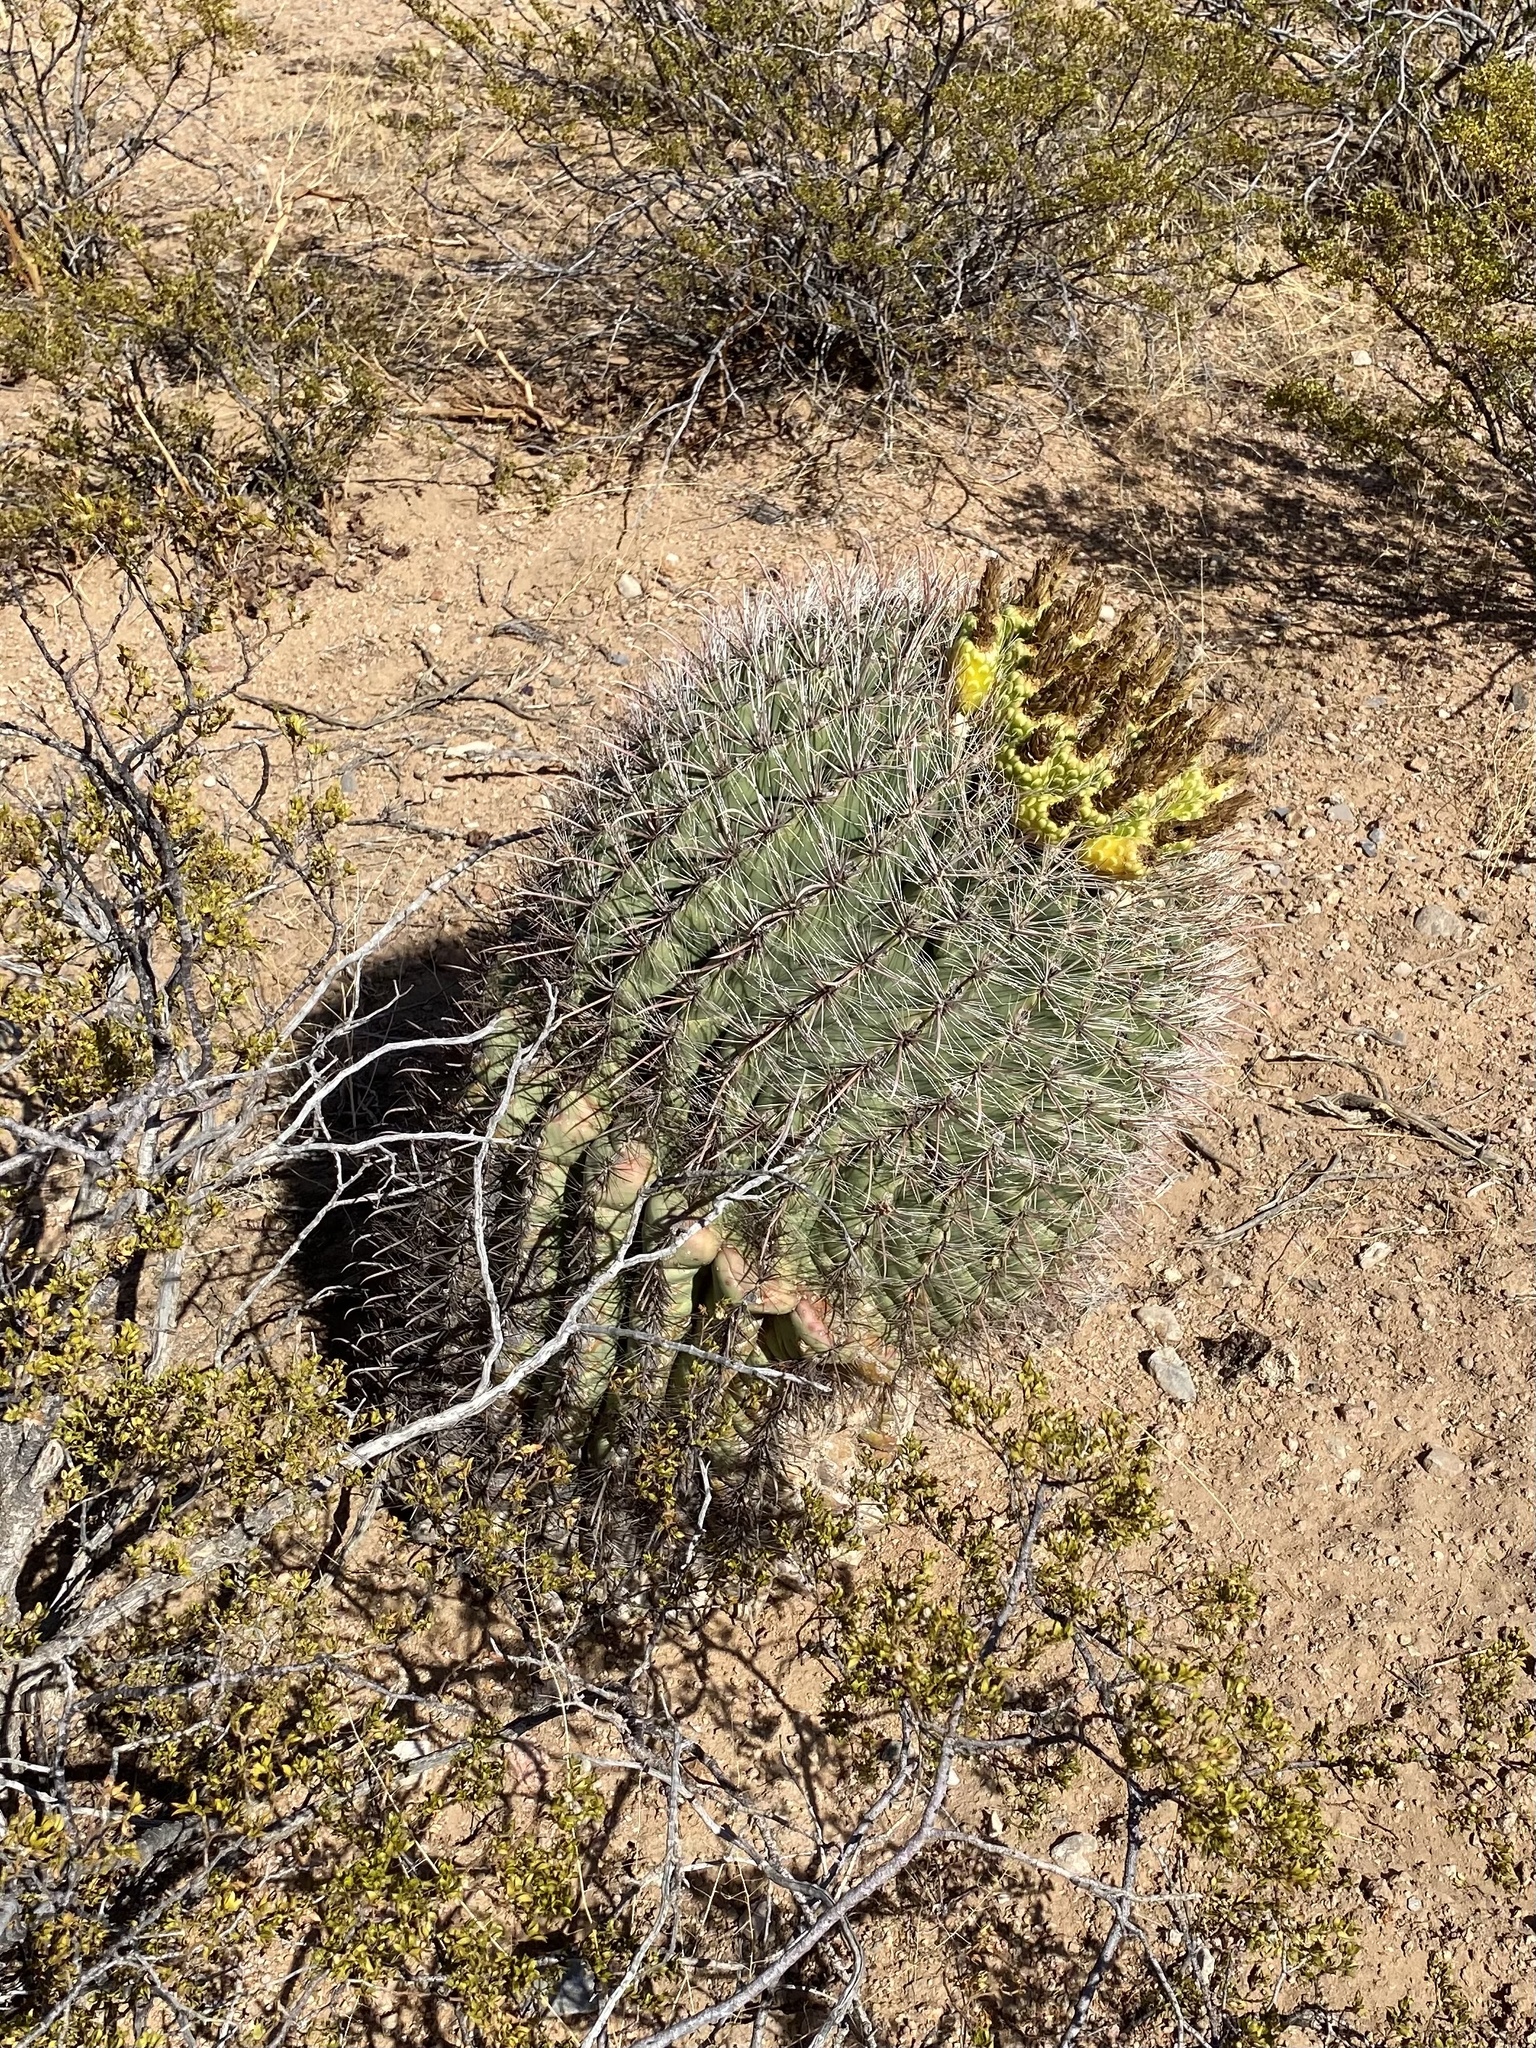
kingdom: Plantae
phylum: Tracheophyta
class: Magnoliopsida
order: Caryophyllales
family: Cactaceae
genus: Ferocactus
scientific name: Ferocactus wislizeni
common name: Candy barrel cactus
